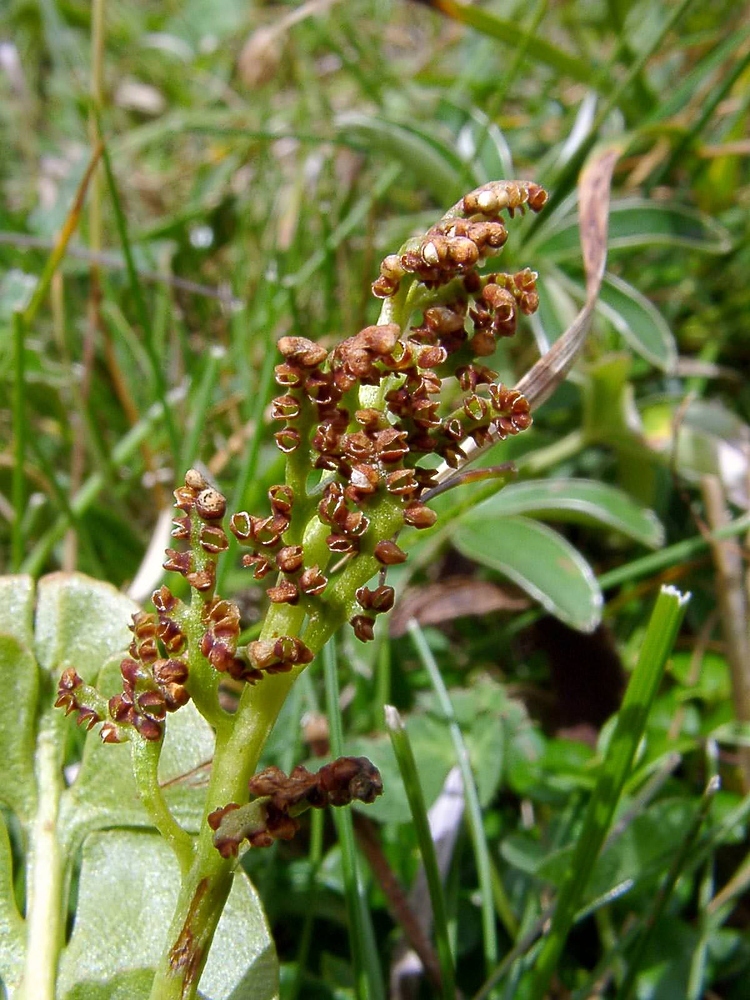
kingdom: Plantae
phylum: Tracheophyta
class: Polypodiopsida
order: Ophioglossales
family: Ophioglossaceae
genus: Botrychium
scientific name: Botrychium lunaria
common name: Moonwort
